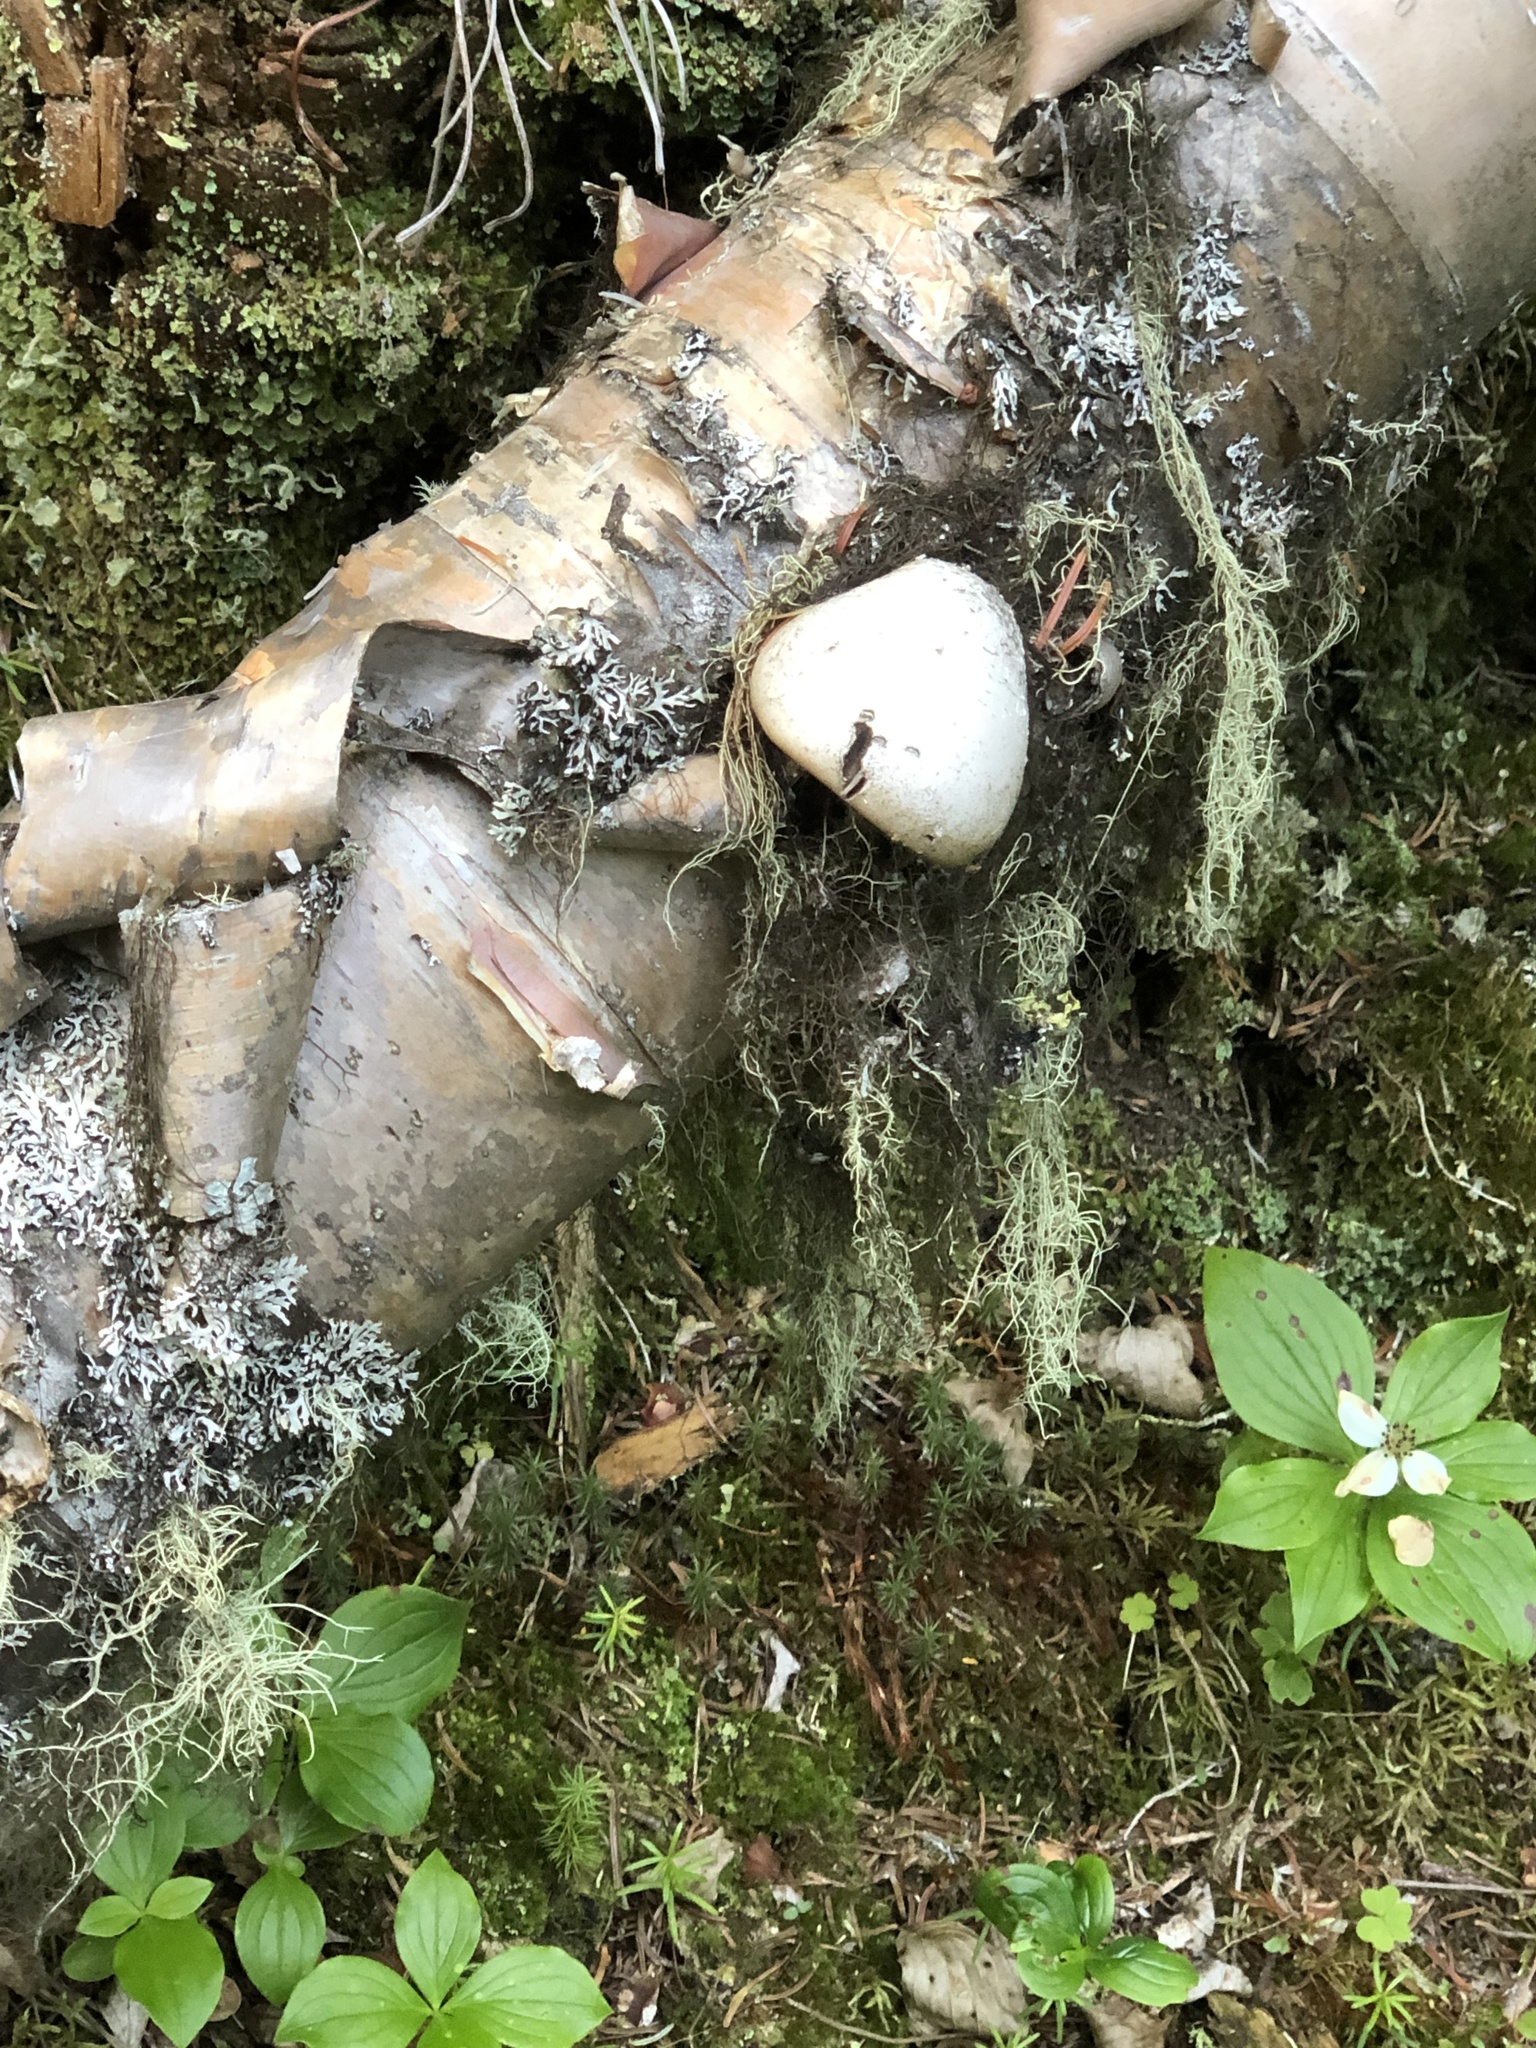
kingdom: Fungi
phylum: Basidiomycota
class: Agaricomycetes
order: Polyporales
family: Fomitopsidaceae
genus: Fomitopsis
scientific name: Fomitopsis betulina
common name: Birch polypore
